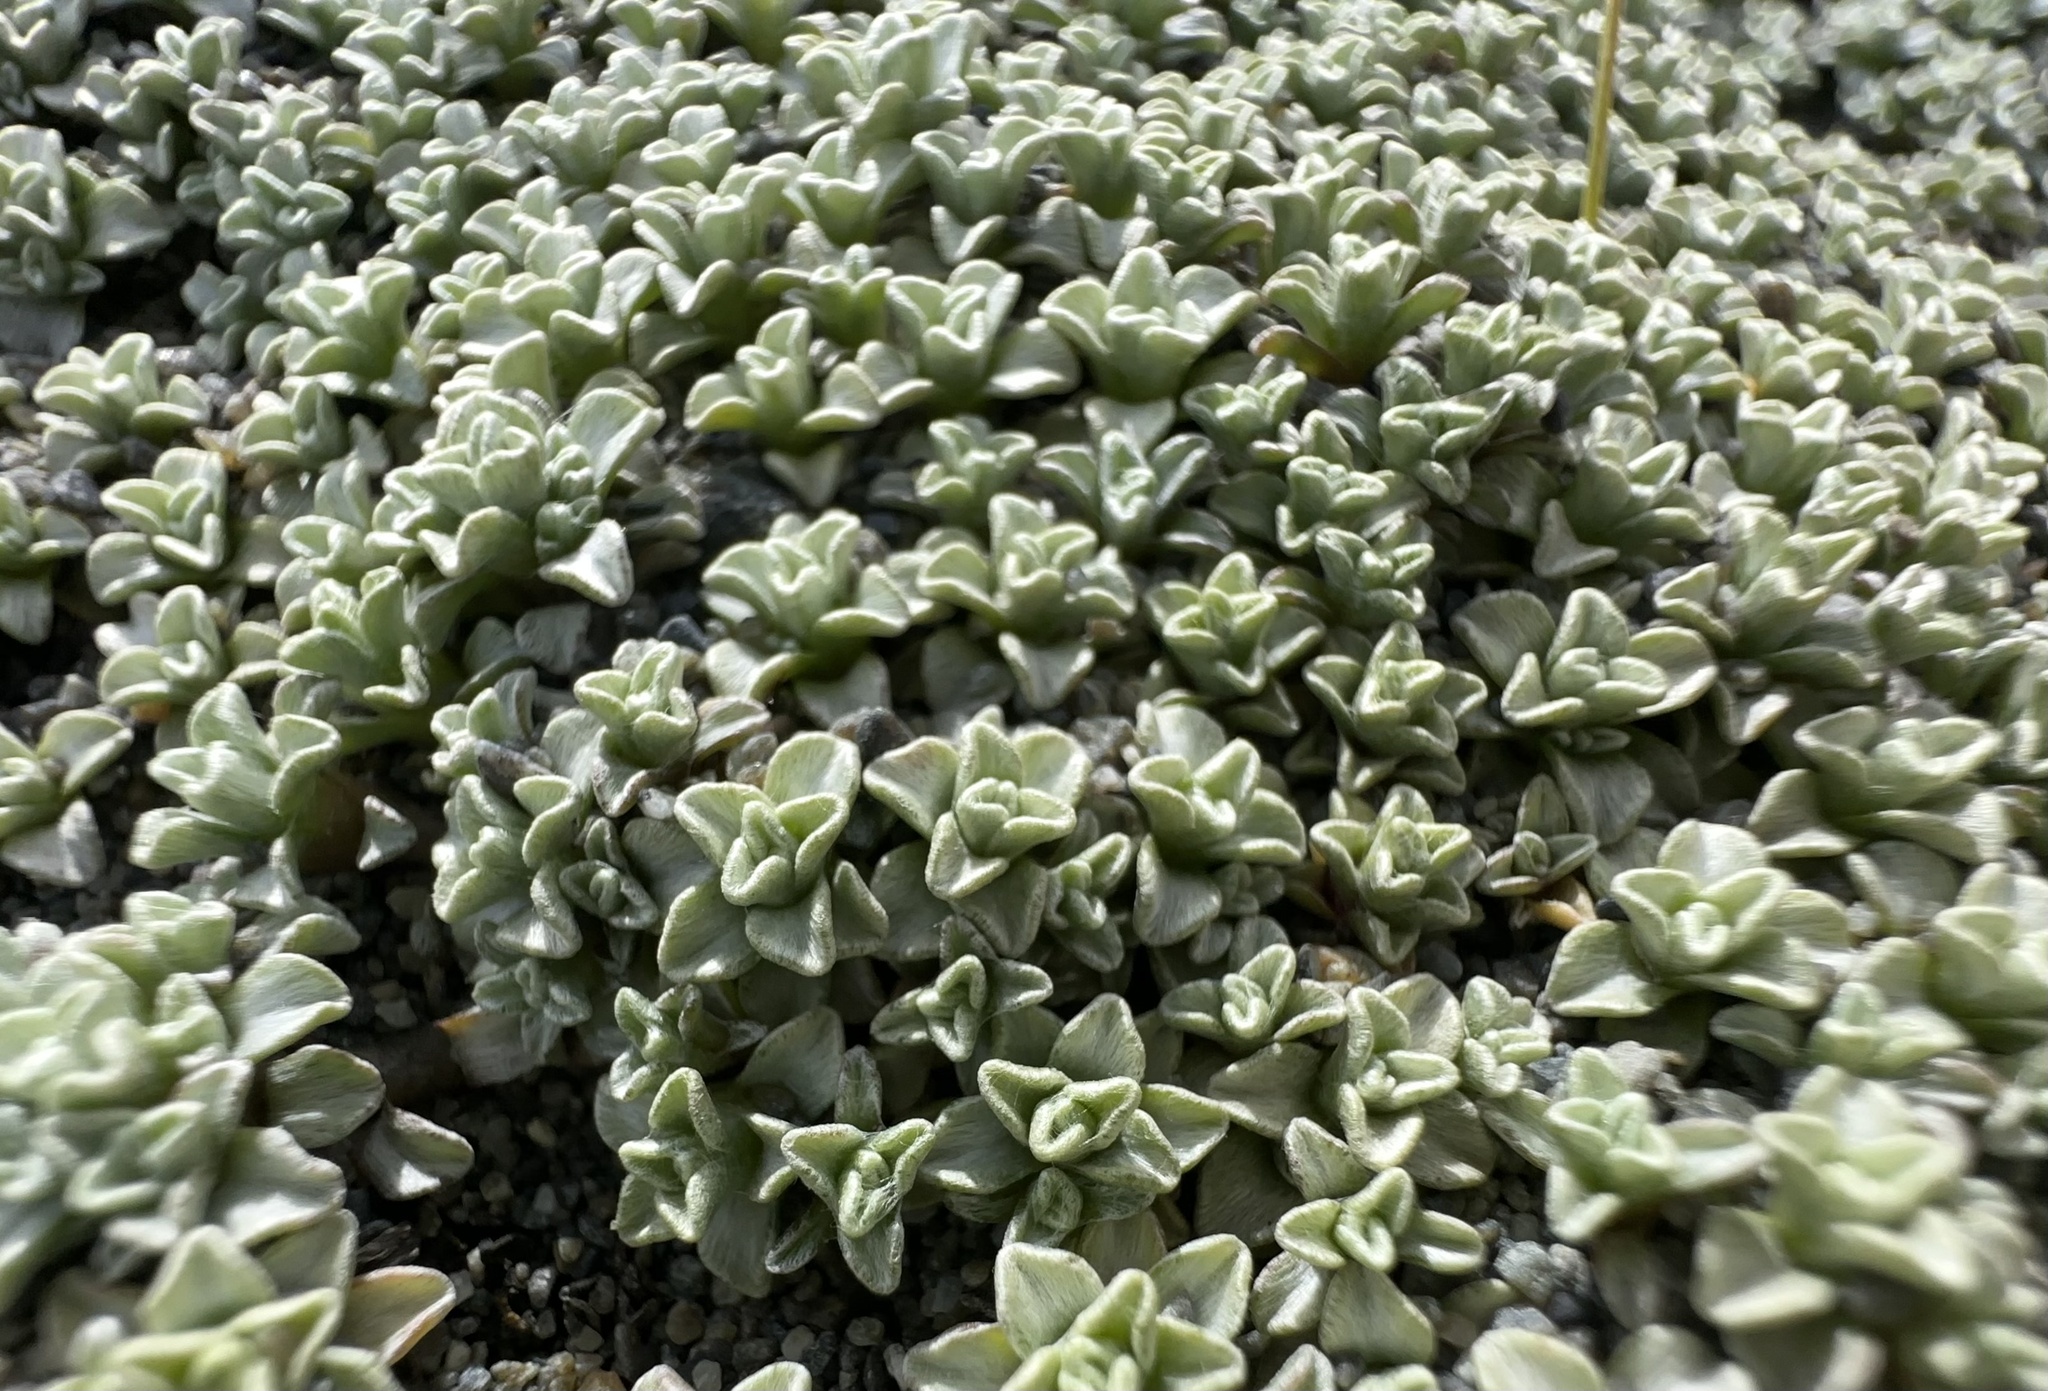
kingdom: Plantae
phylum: Tracheophyta
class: Magnoliopsida
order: Asterales
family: Asteraceae
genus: Raoulia
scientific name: Raoulia hookeri
